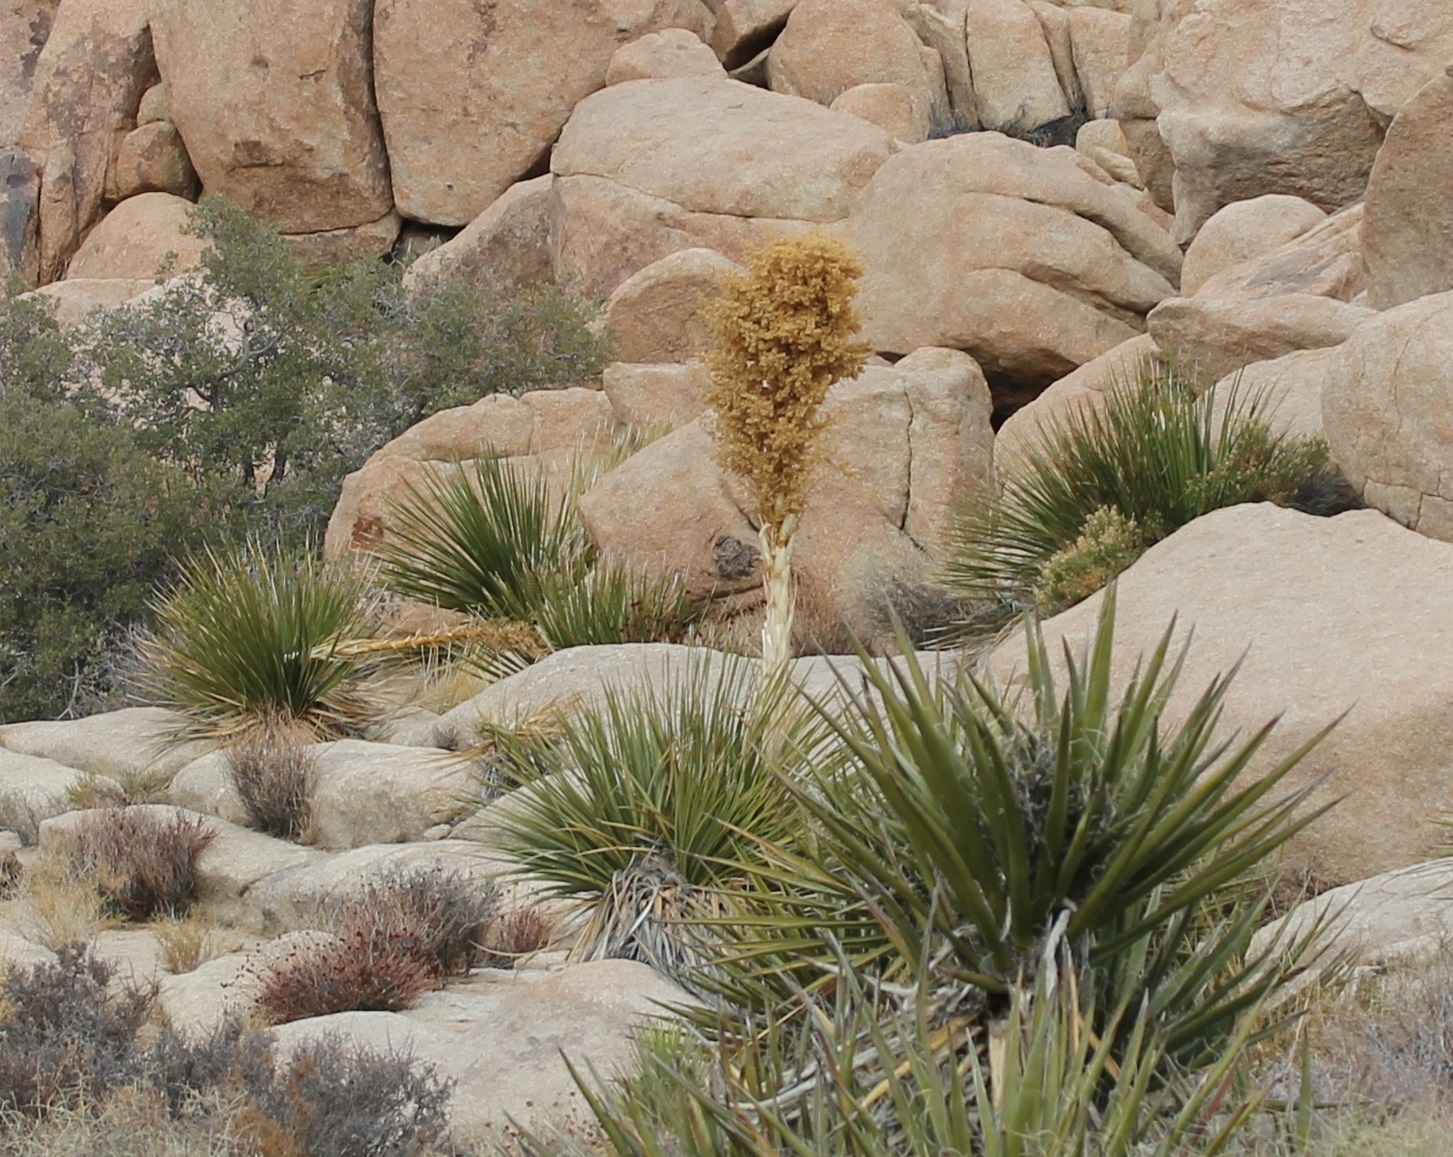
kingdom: Plantae
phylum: Tracheophyta
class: Liliopsida
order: Asparagales
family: Asparagaceae
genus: Nolina
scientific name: Nolina parryi
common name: Parry nolina
